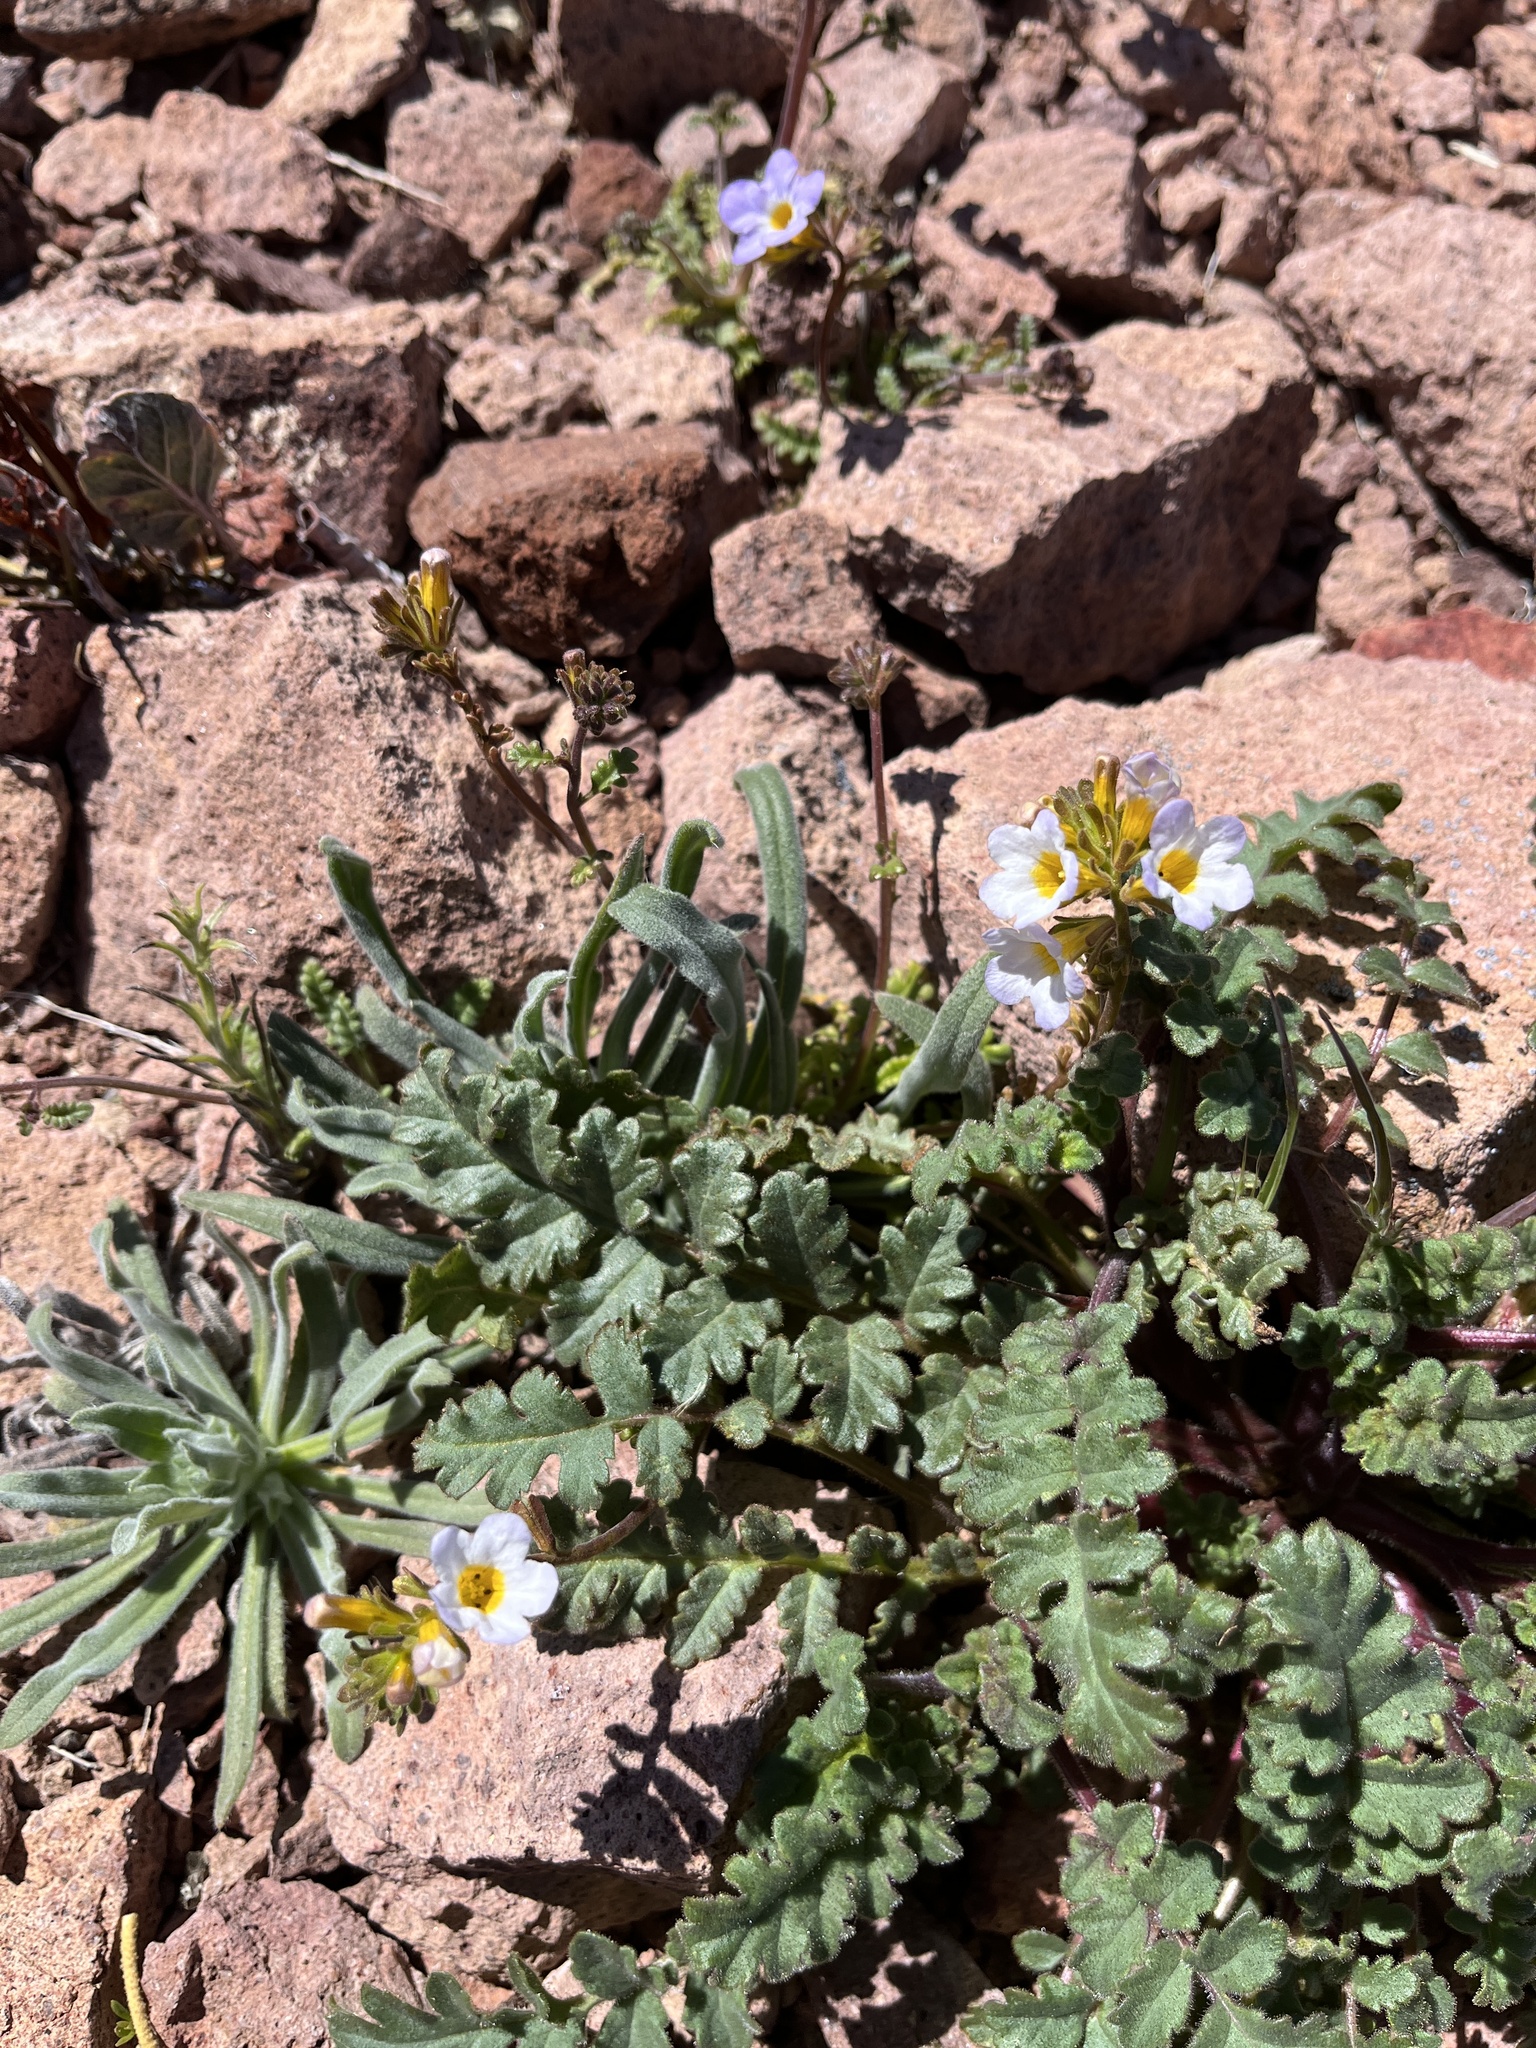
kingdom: Plantae
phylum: Tracheophyta
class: Magnoliopsida
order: Boraginales
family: Hydrophyllaceae
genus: Phacelia
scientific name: Phacelia fremontii
